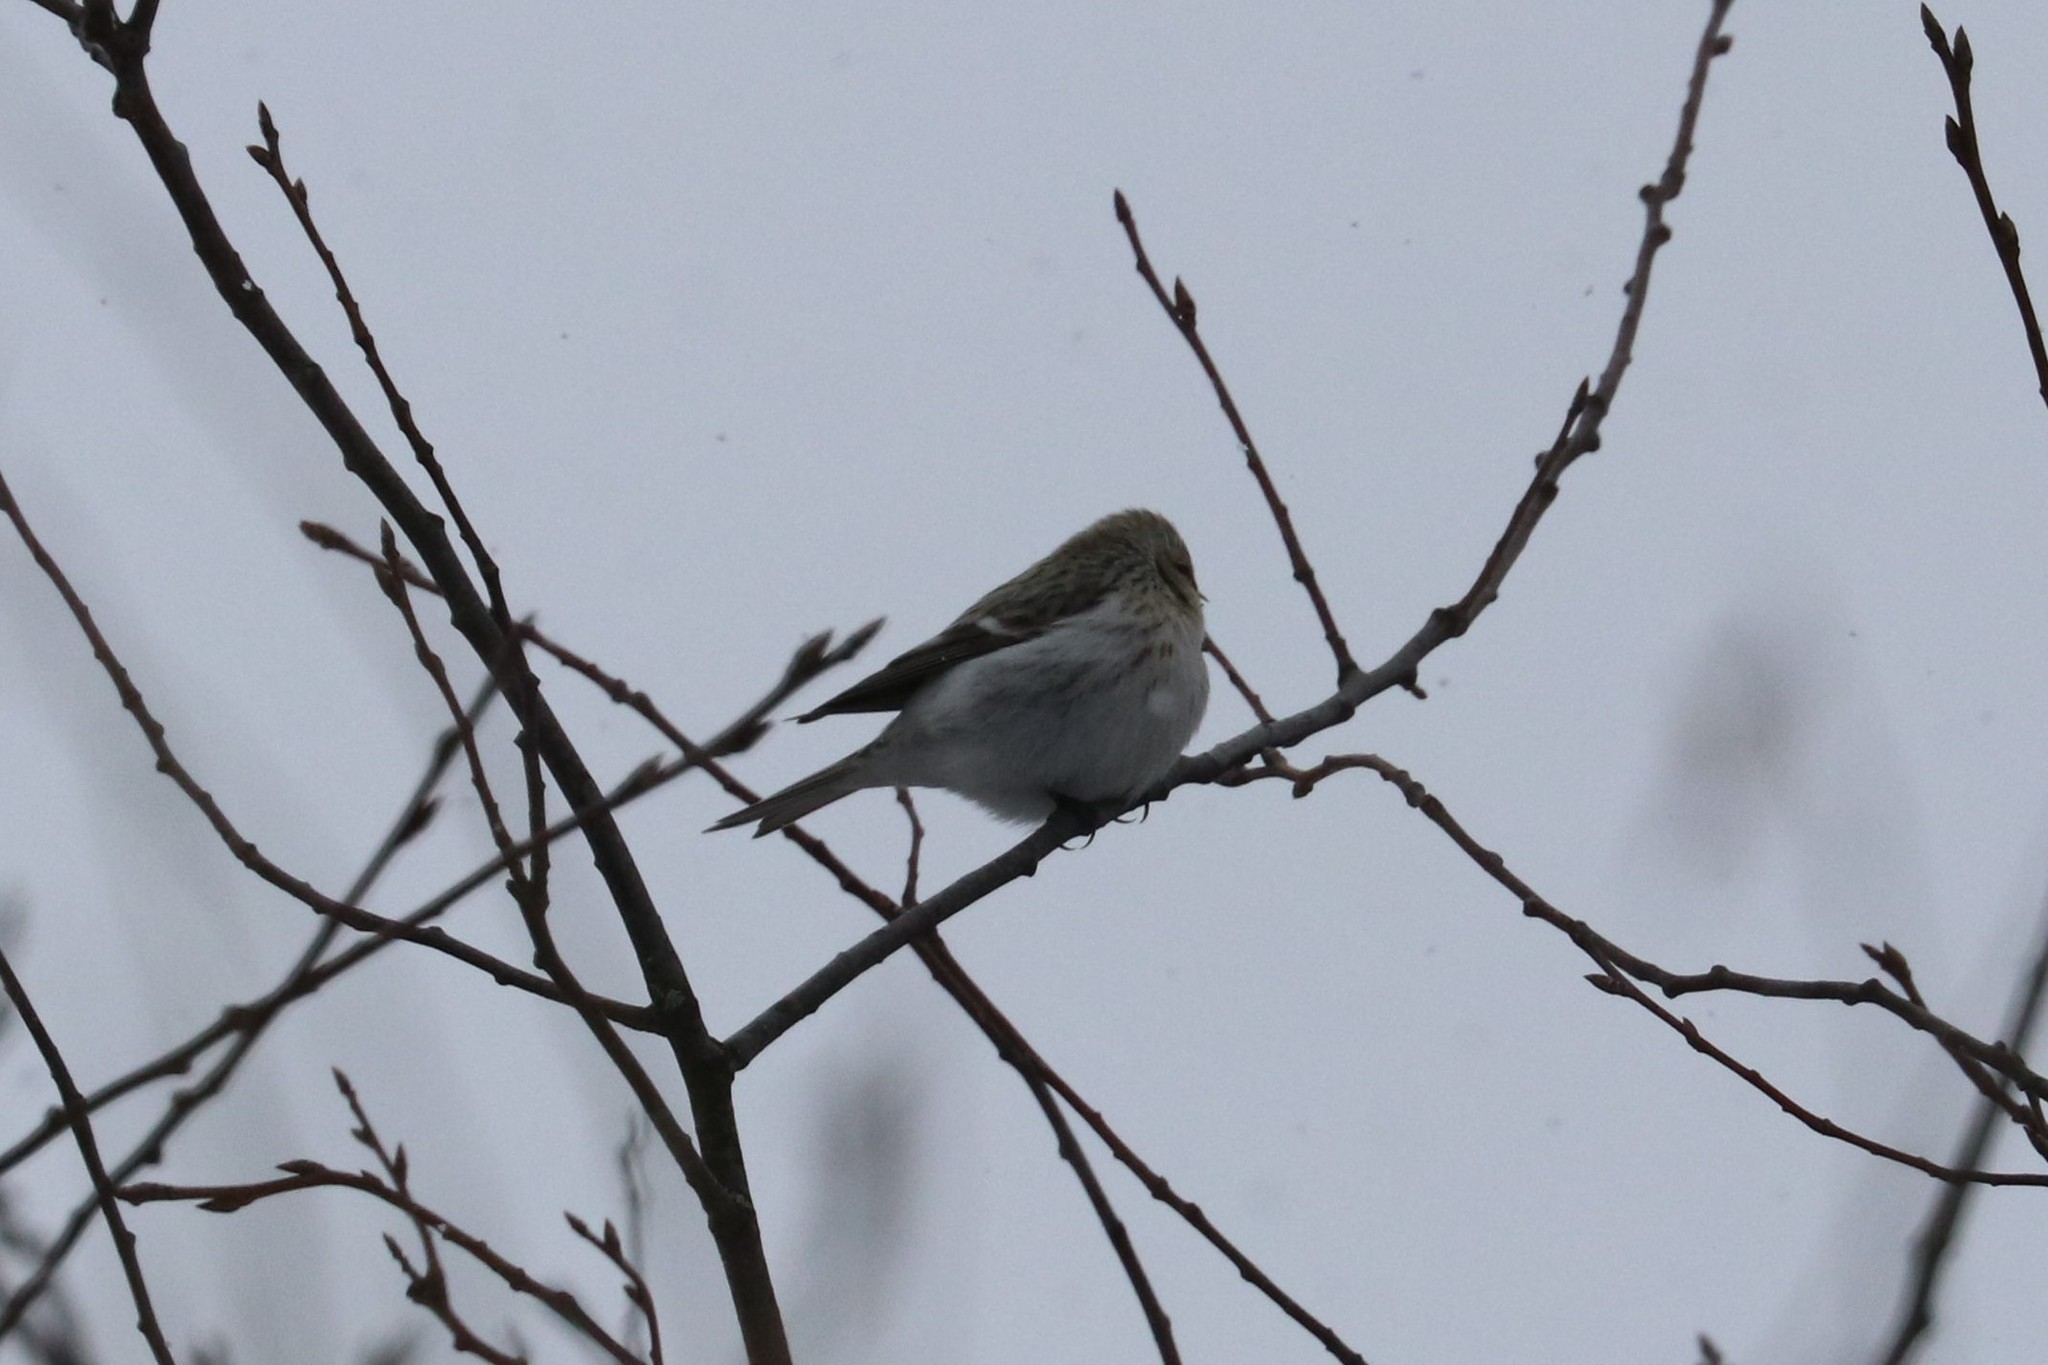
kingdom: Animalia
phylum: Chordata
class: Aves
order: Passeriformes
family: Fringillidae
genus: Acanthis
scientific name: Acanthis hornemanni
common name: Arctic redpoll
